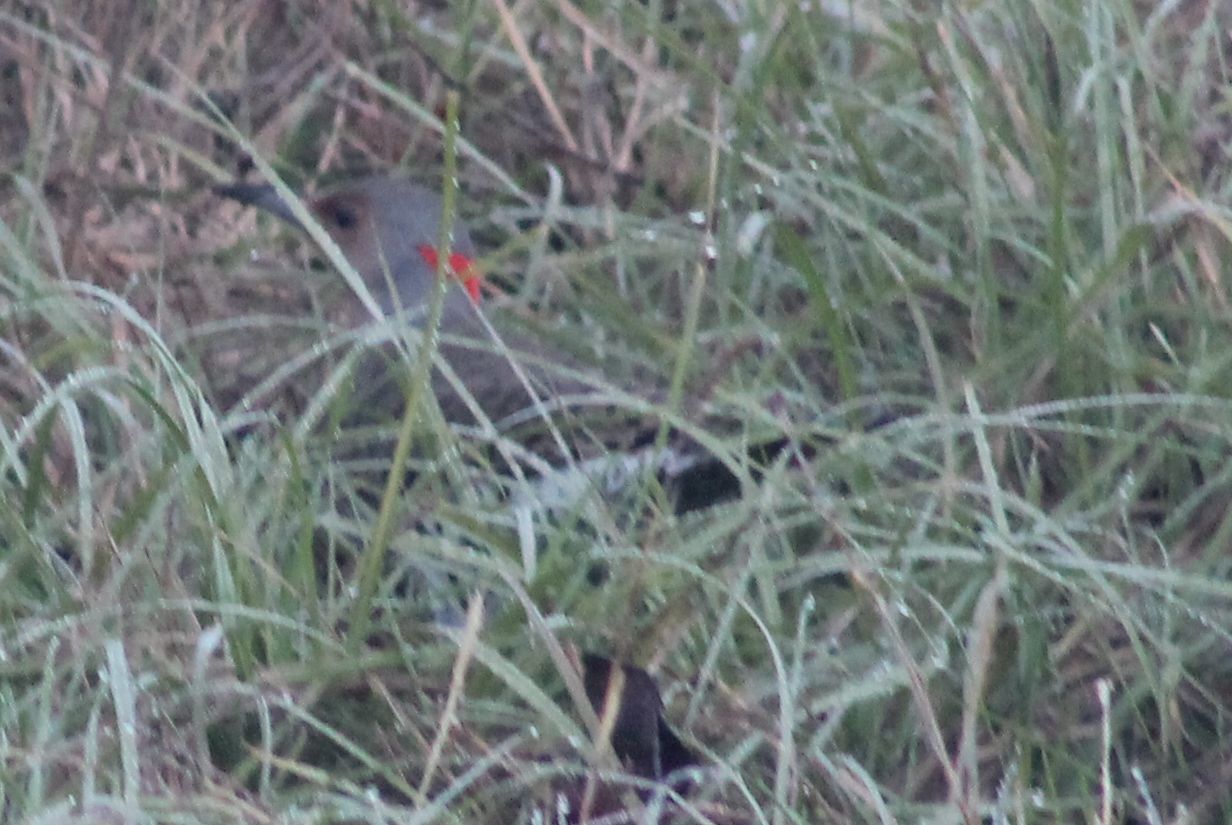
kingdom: Animalia
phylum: Chordata
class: Aves
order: Piciformes
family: Picidae
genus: Colaptes
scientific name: Colaptes auratus
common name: Northern flicker
